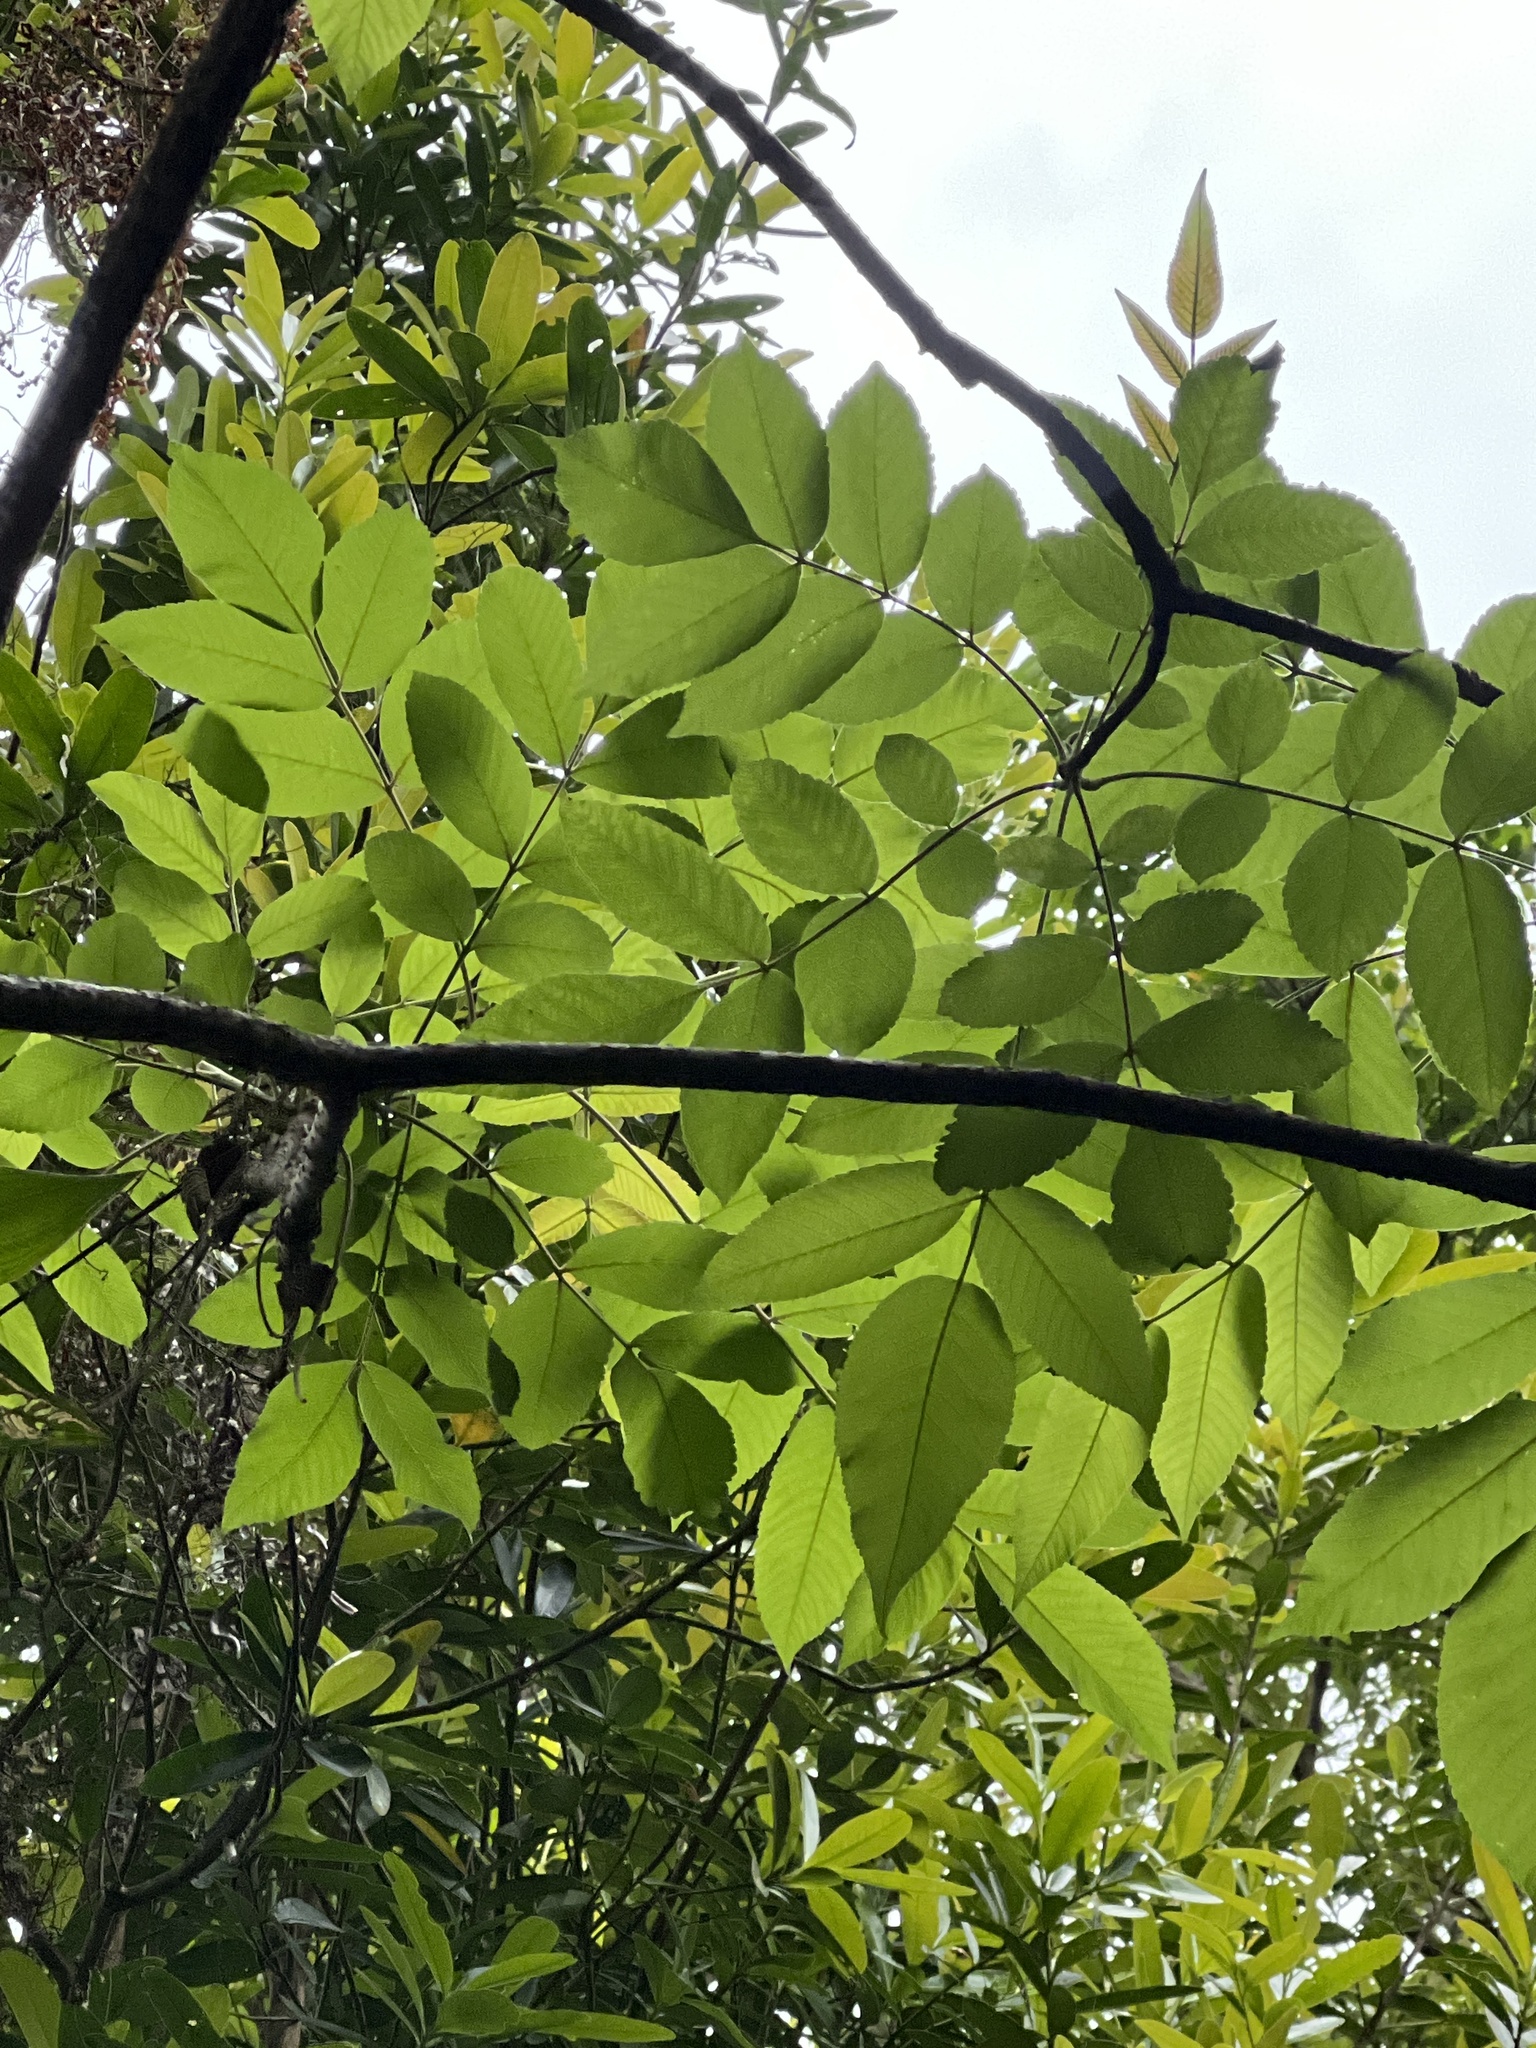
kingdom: Plantae
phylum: Tracheophyta
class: Magnoliopsida
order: Sapindales
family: Anacardiaceae
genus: Rhus
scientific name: Rhus chinensis
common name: Chinese gall
